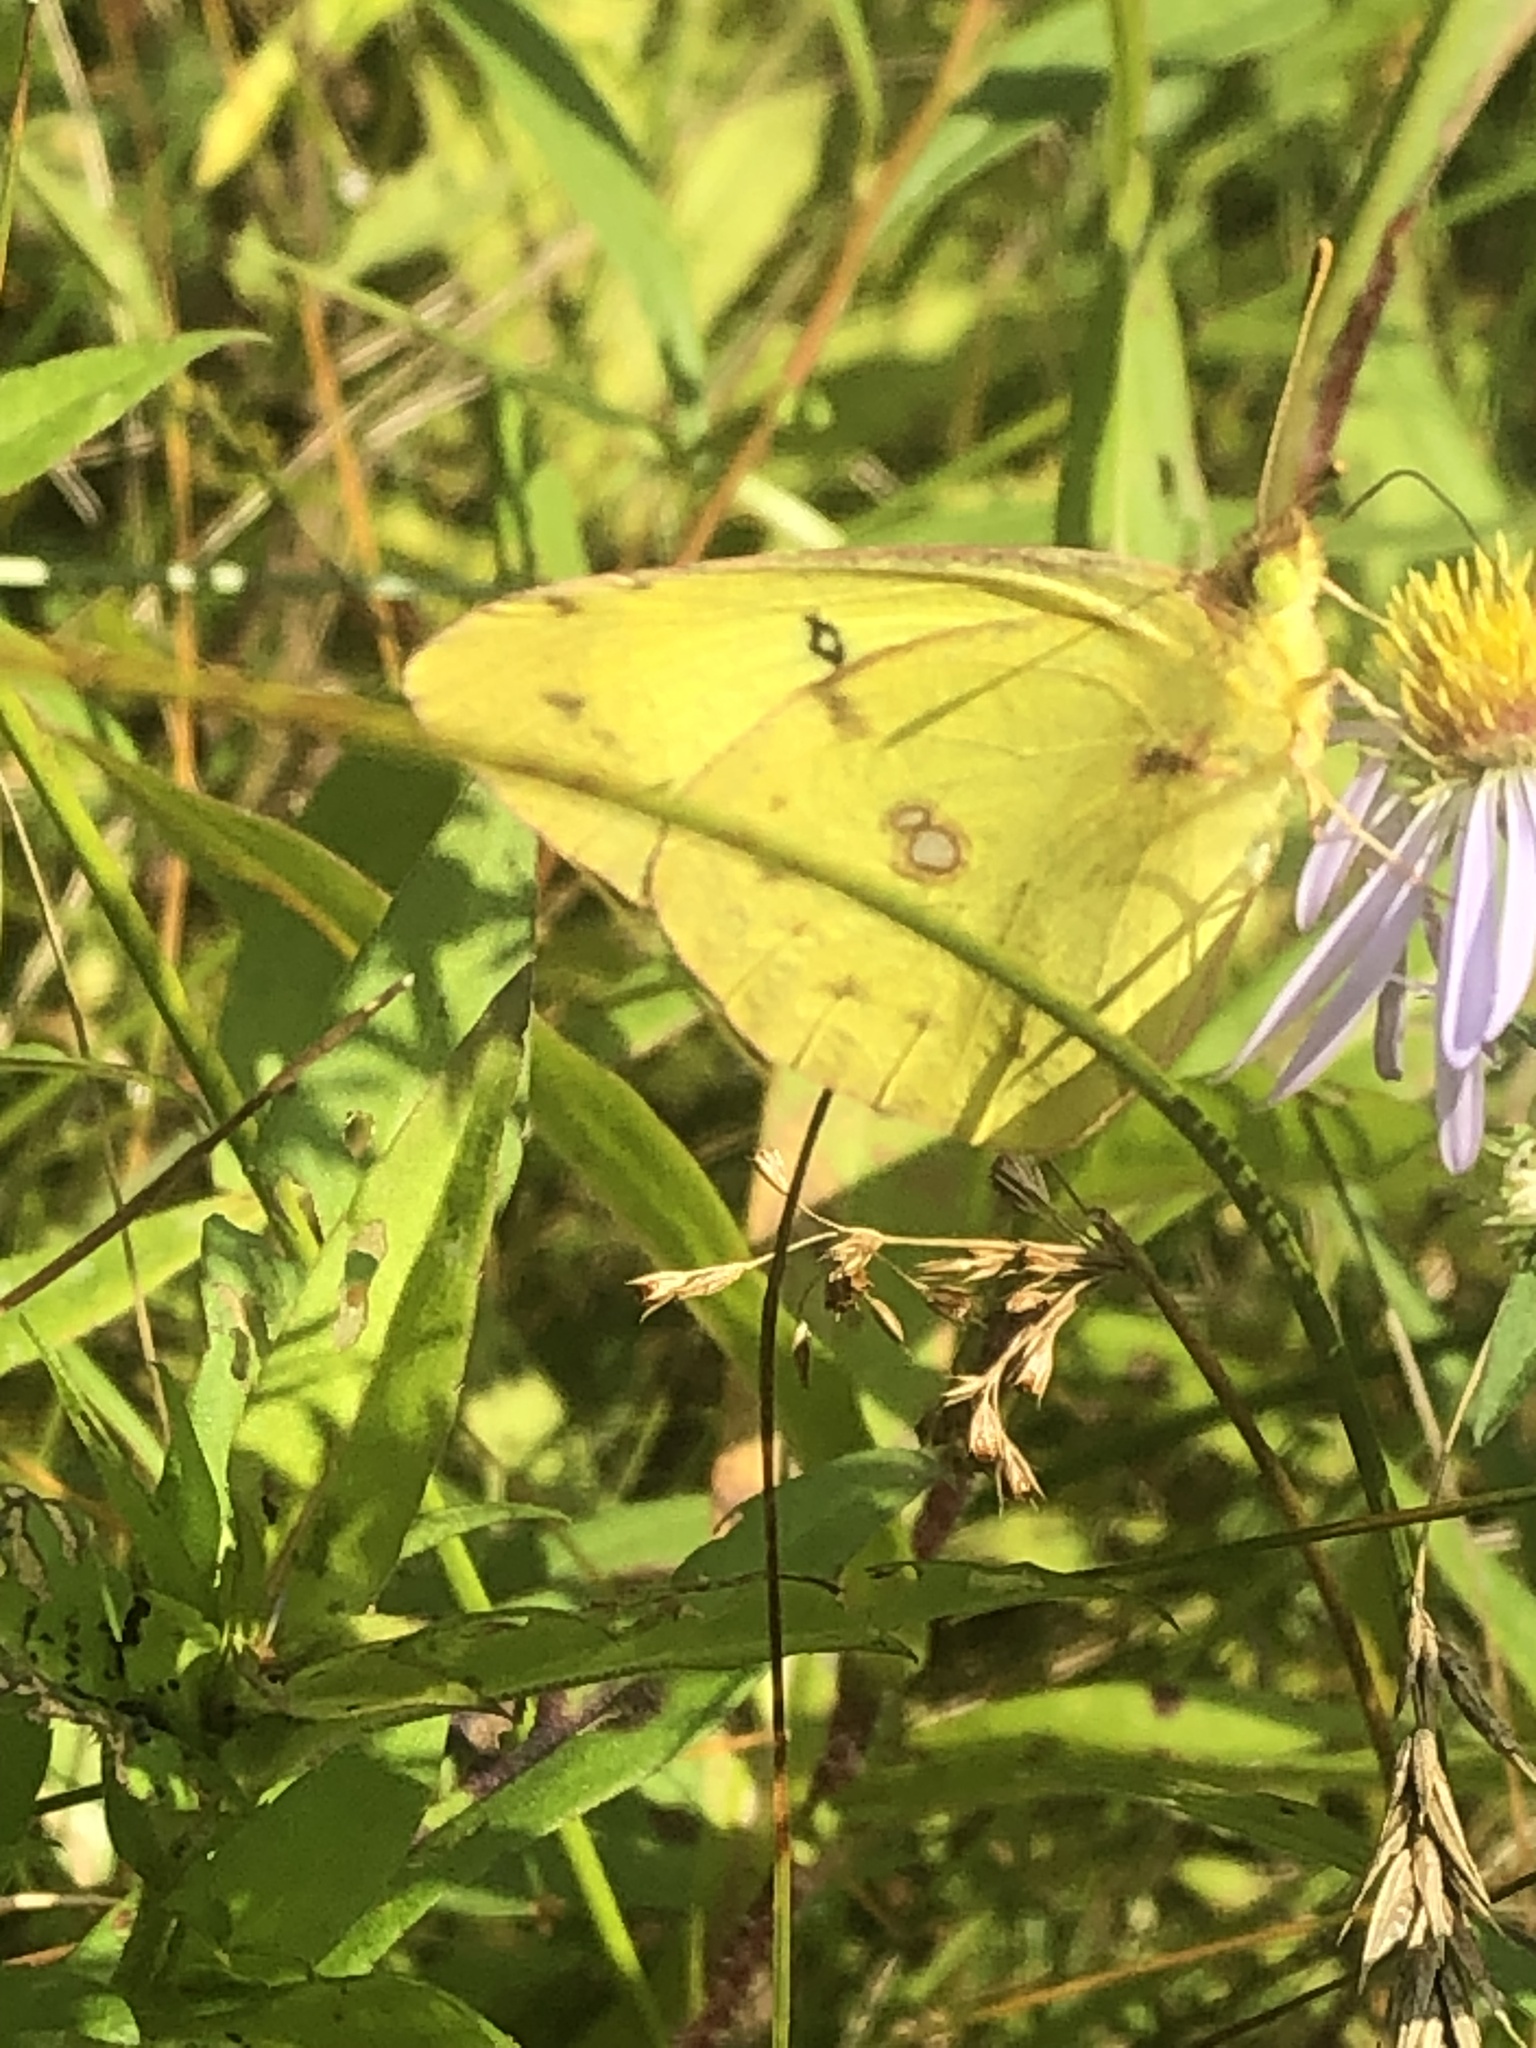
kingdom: Animalia
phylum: Arthropoda
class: Insecta
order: Lepidoptera
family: Pieridae
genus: Colias
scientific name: Colias philodice
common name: Clouded sulphur
